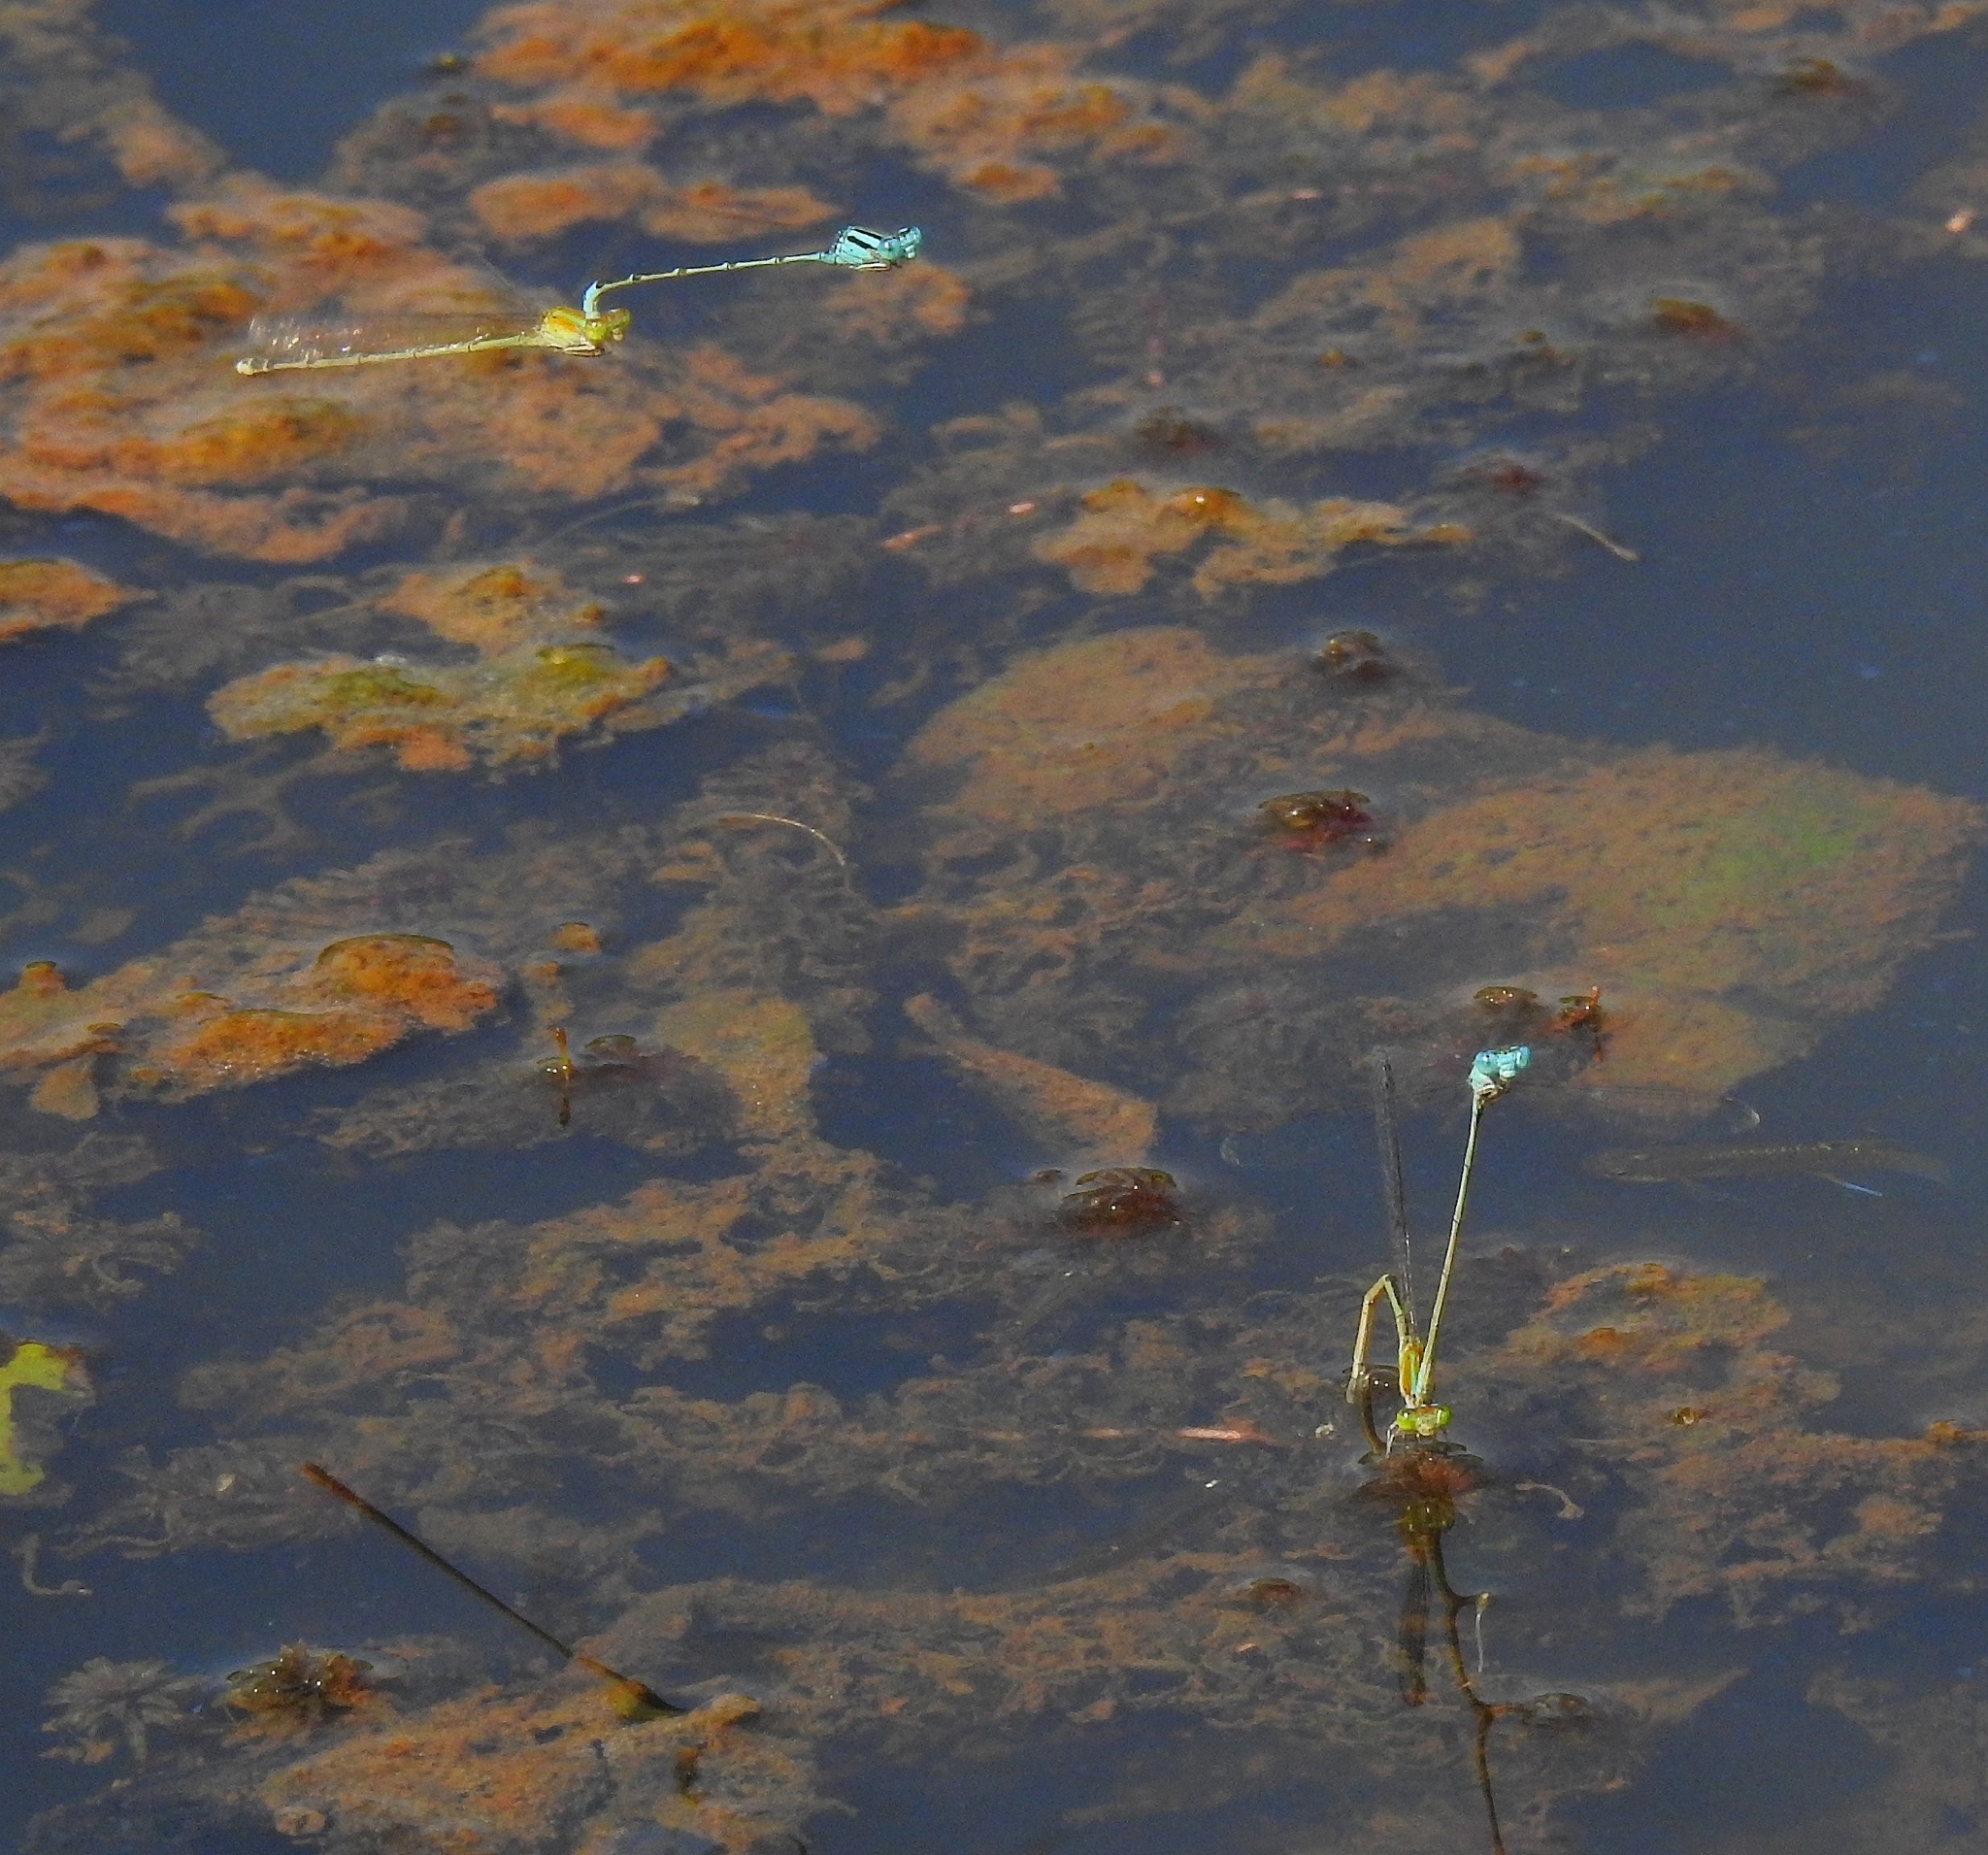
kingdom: Animalia
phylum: Arthropoda
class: Insecta
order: Odonata
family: Coenagrionidae
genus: Pseudagrion
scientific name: Pseudagrion microcephalum
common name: Blue riverdamsel
